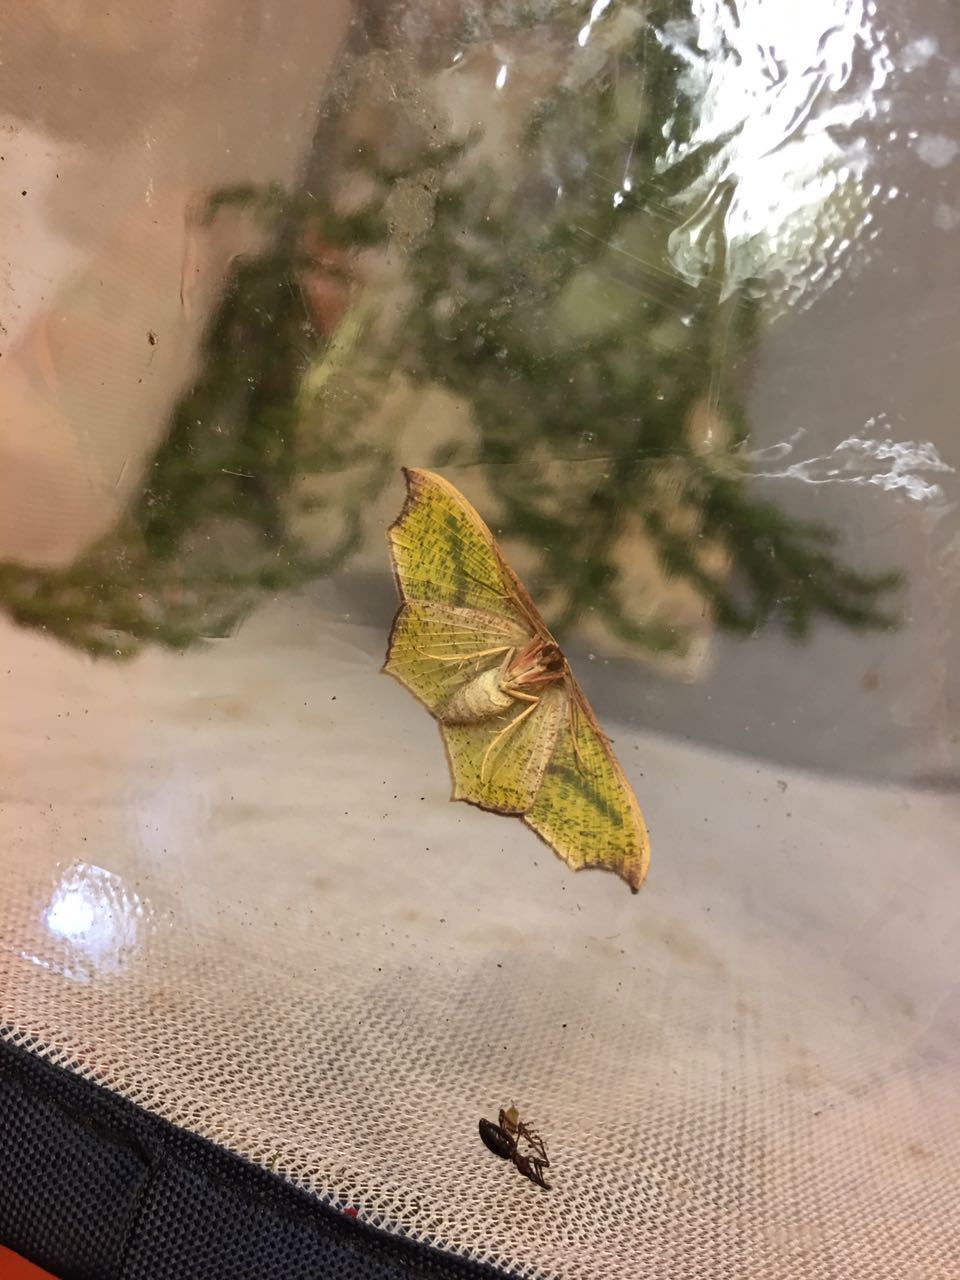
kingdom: Animalia
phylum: Arthropoda
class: Insecta
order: Lepidoptera
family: Geometridae
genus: Traminda
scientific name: Traminda aventiaria
